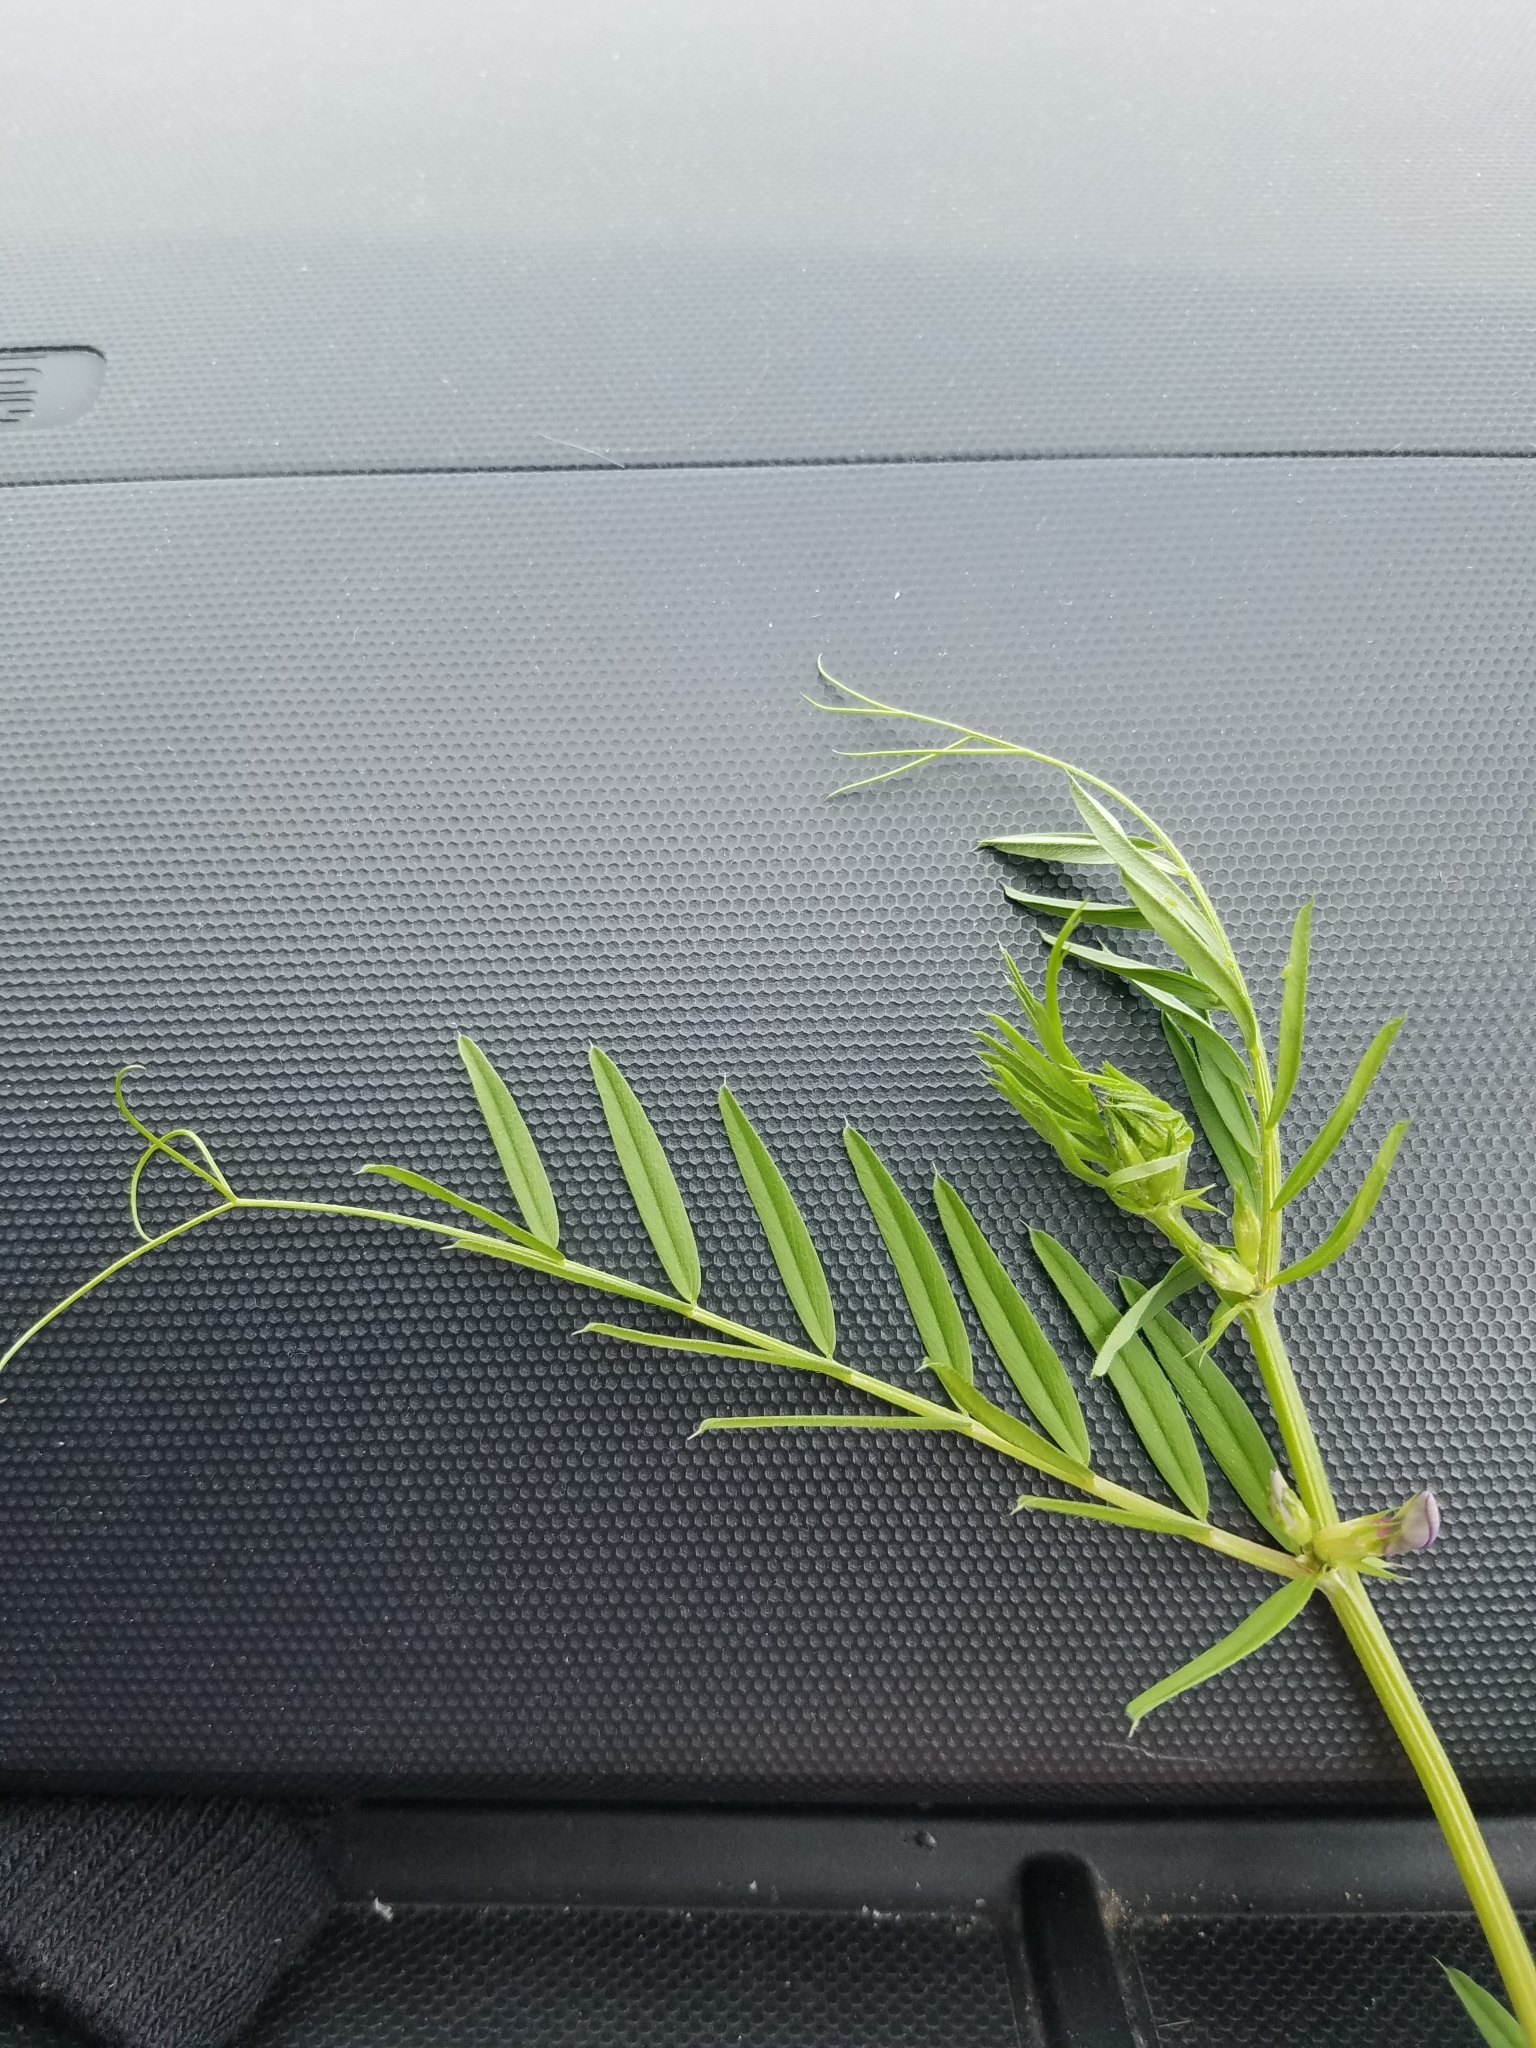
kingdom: Plantae
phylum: Tracheophyta
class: Magnoliopsida
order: Fabales
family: Fabaceae
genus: Vicia
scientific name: Vicia sativa
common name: Garden vetch
